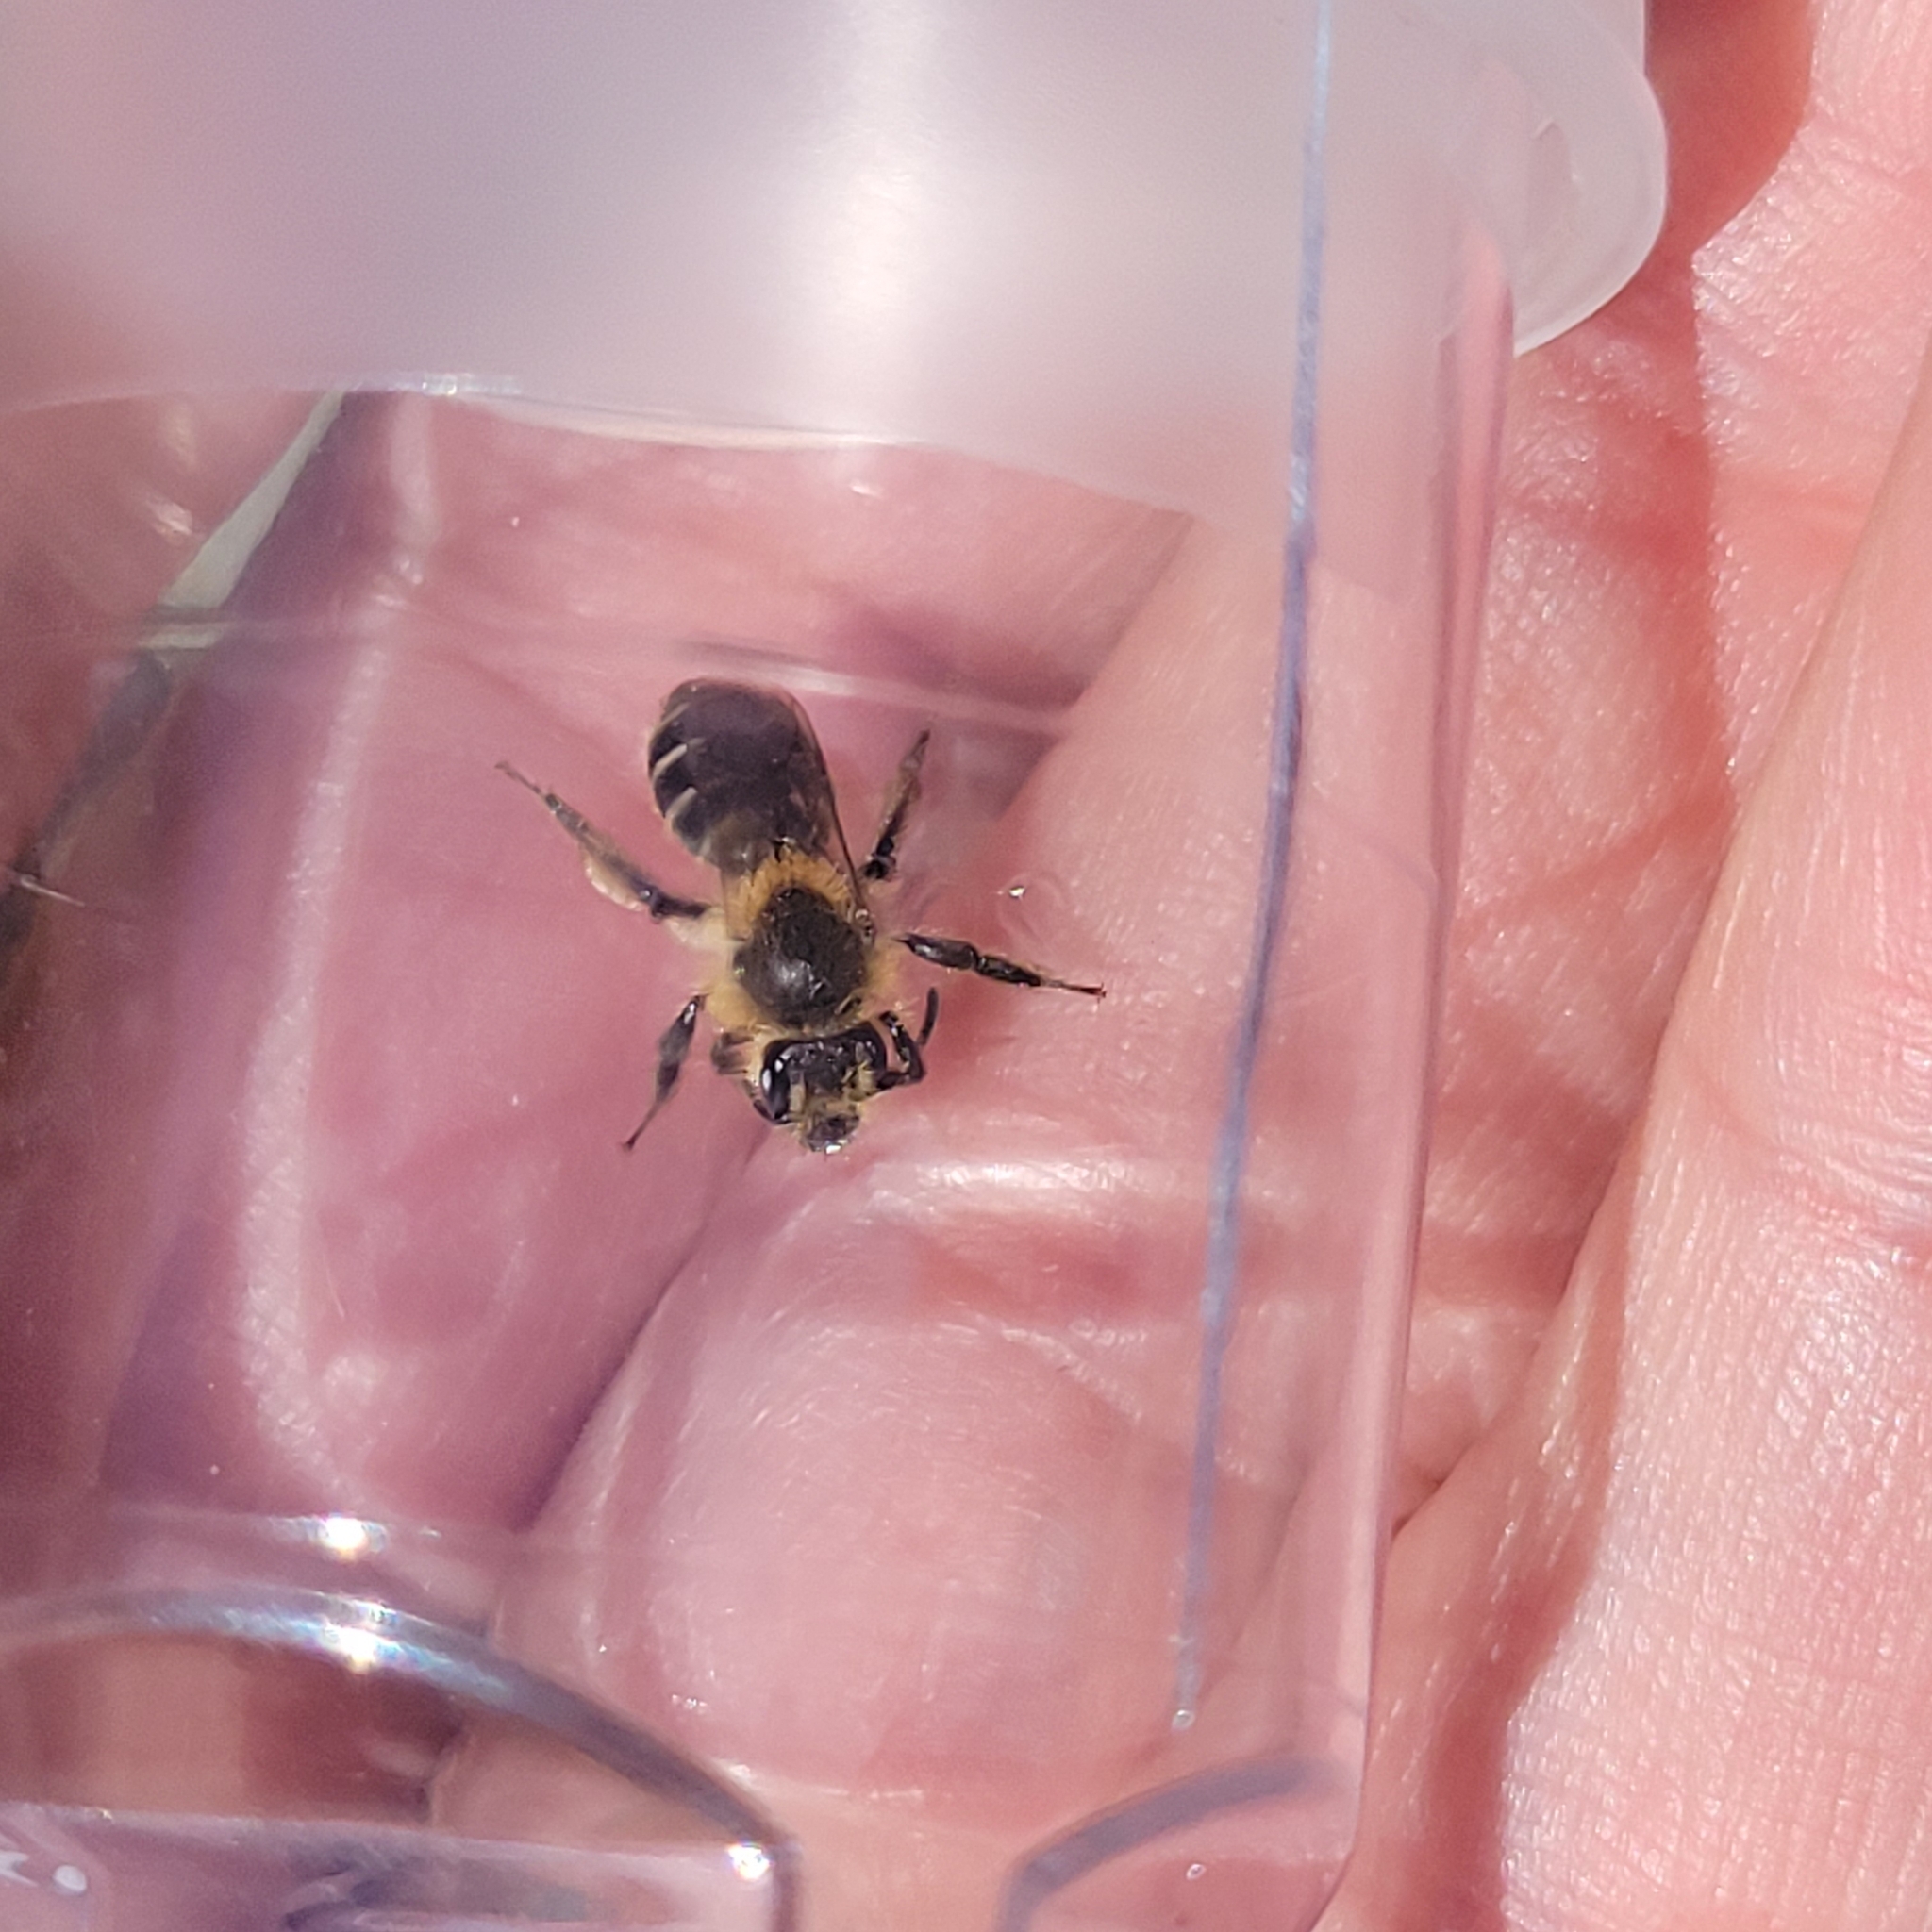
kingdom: Animalia
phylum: Arthropoda
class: Insecta
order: Hymenoptera
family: Andrenidae
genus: Andrena
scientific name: Andrena bradleyi
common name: Bradley's mining bee
